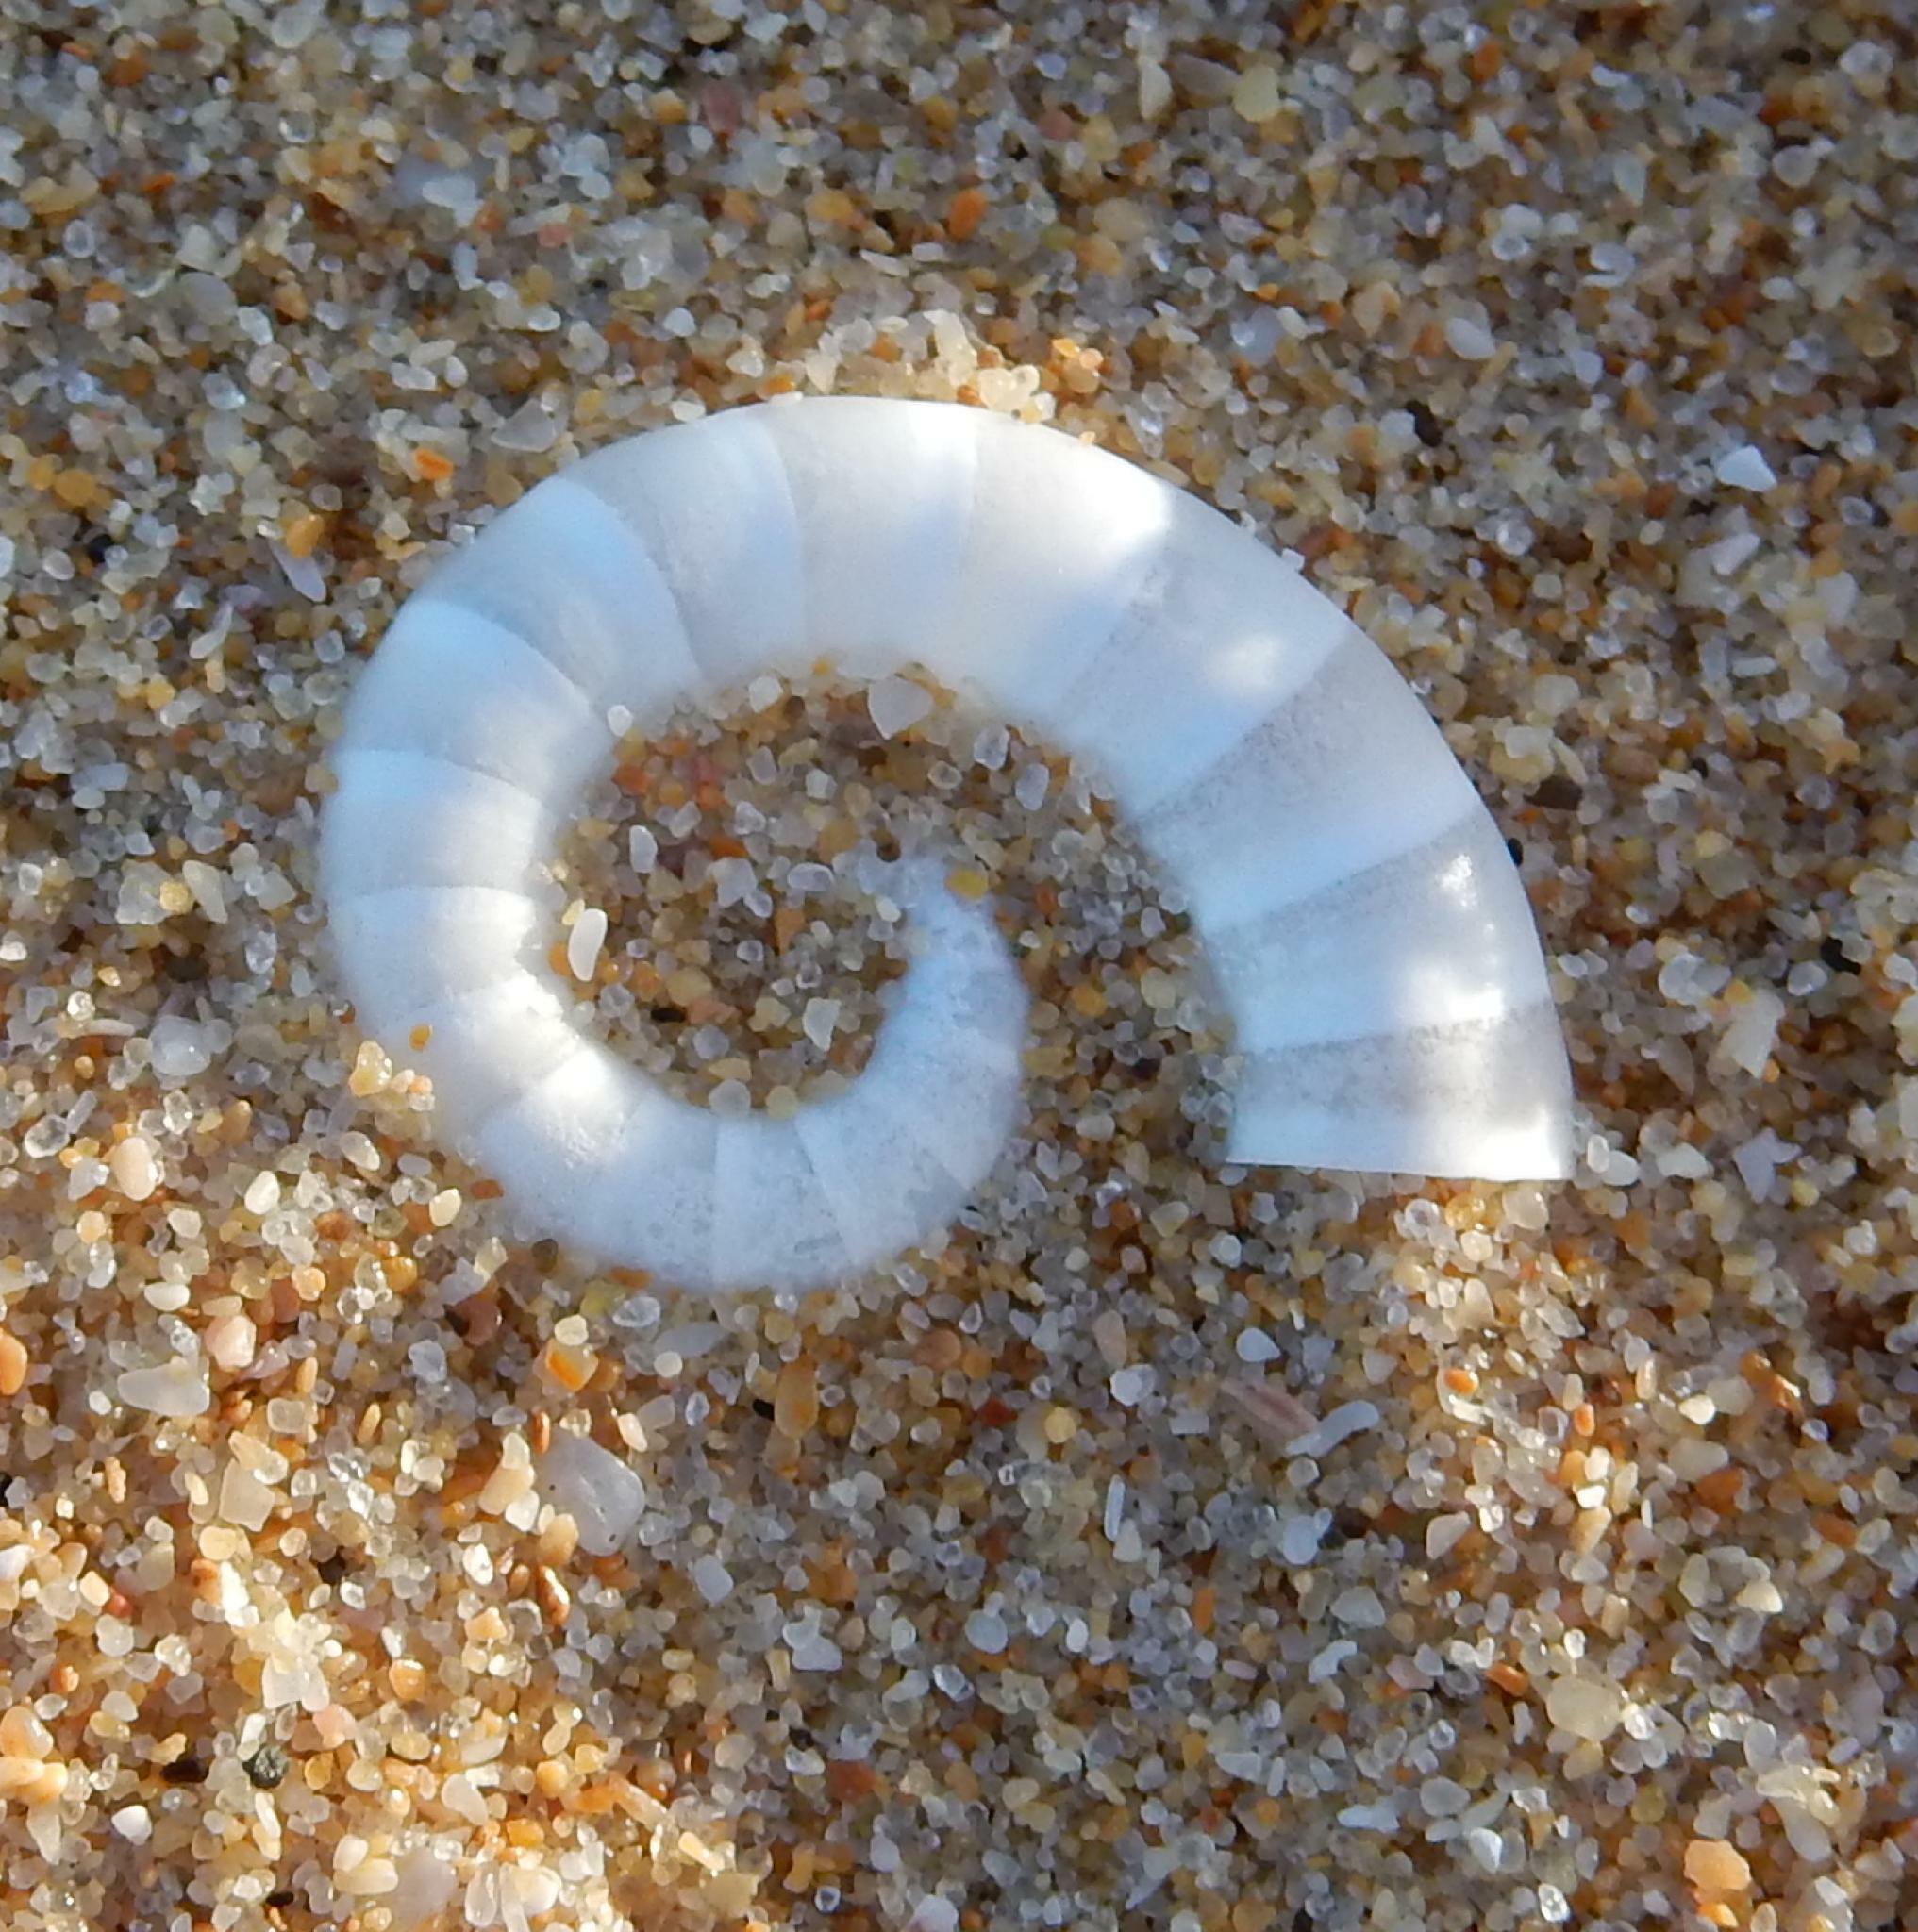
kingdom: Animalia
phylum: Mollusca
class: Cephalopoda
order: Spirulida
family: Spirulidae
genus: Spirula
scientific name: Spirula spirula
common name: Ram's horn squid
